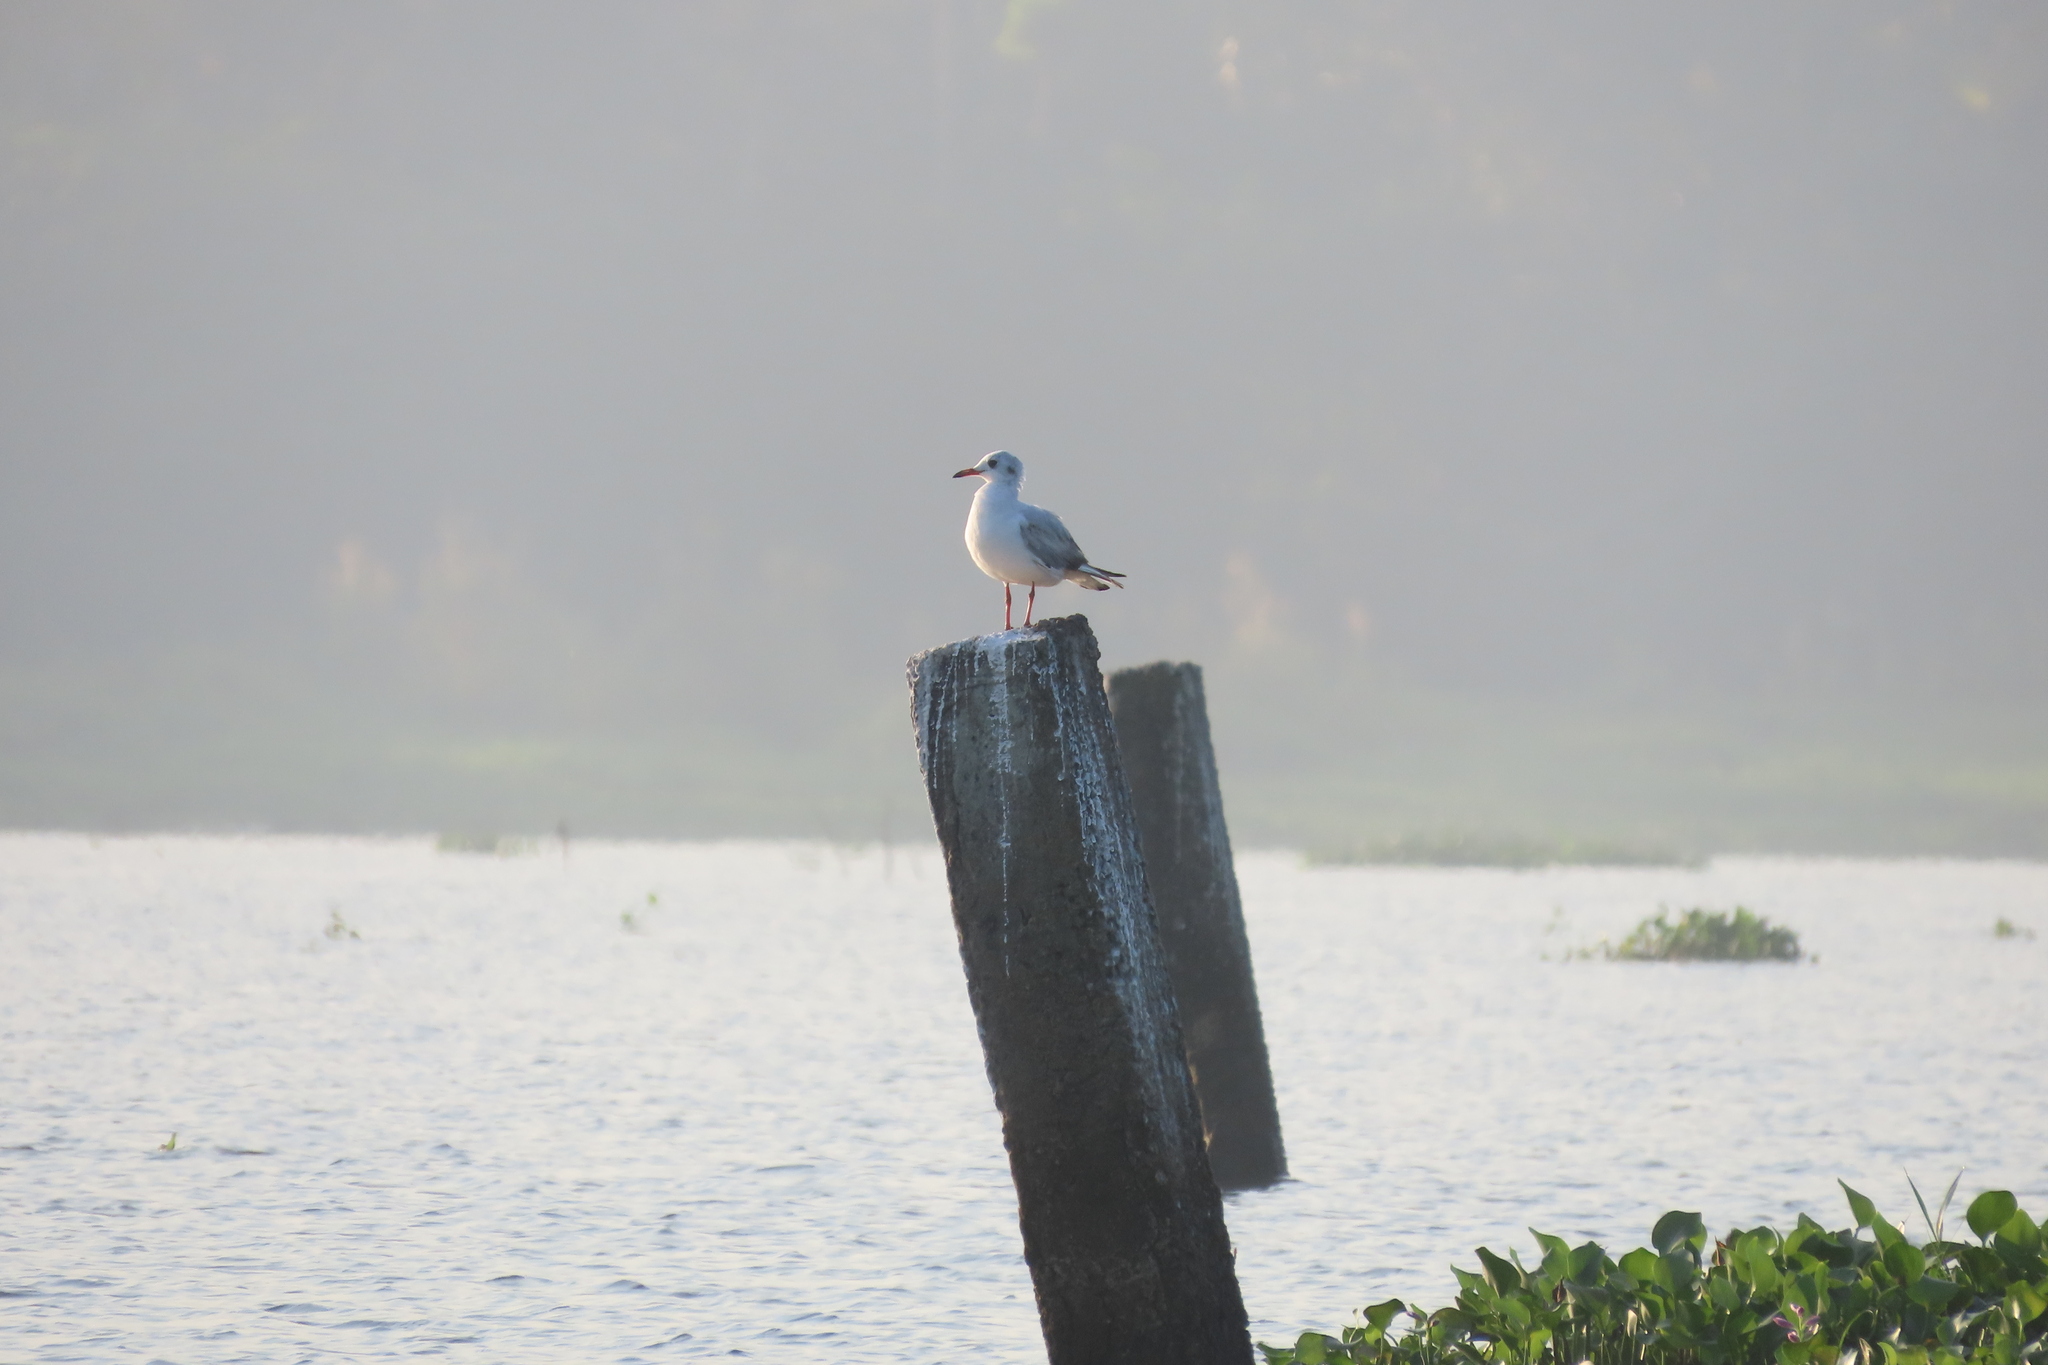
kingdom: Animalia
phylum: Chordata
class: Aves
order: Charadriiformes
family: Laridae
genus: Chroicocephalus
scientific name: Chroicocephalus ridibundus
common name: Black-headed gull
